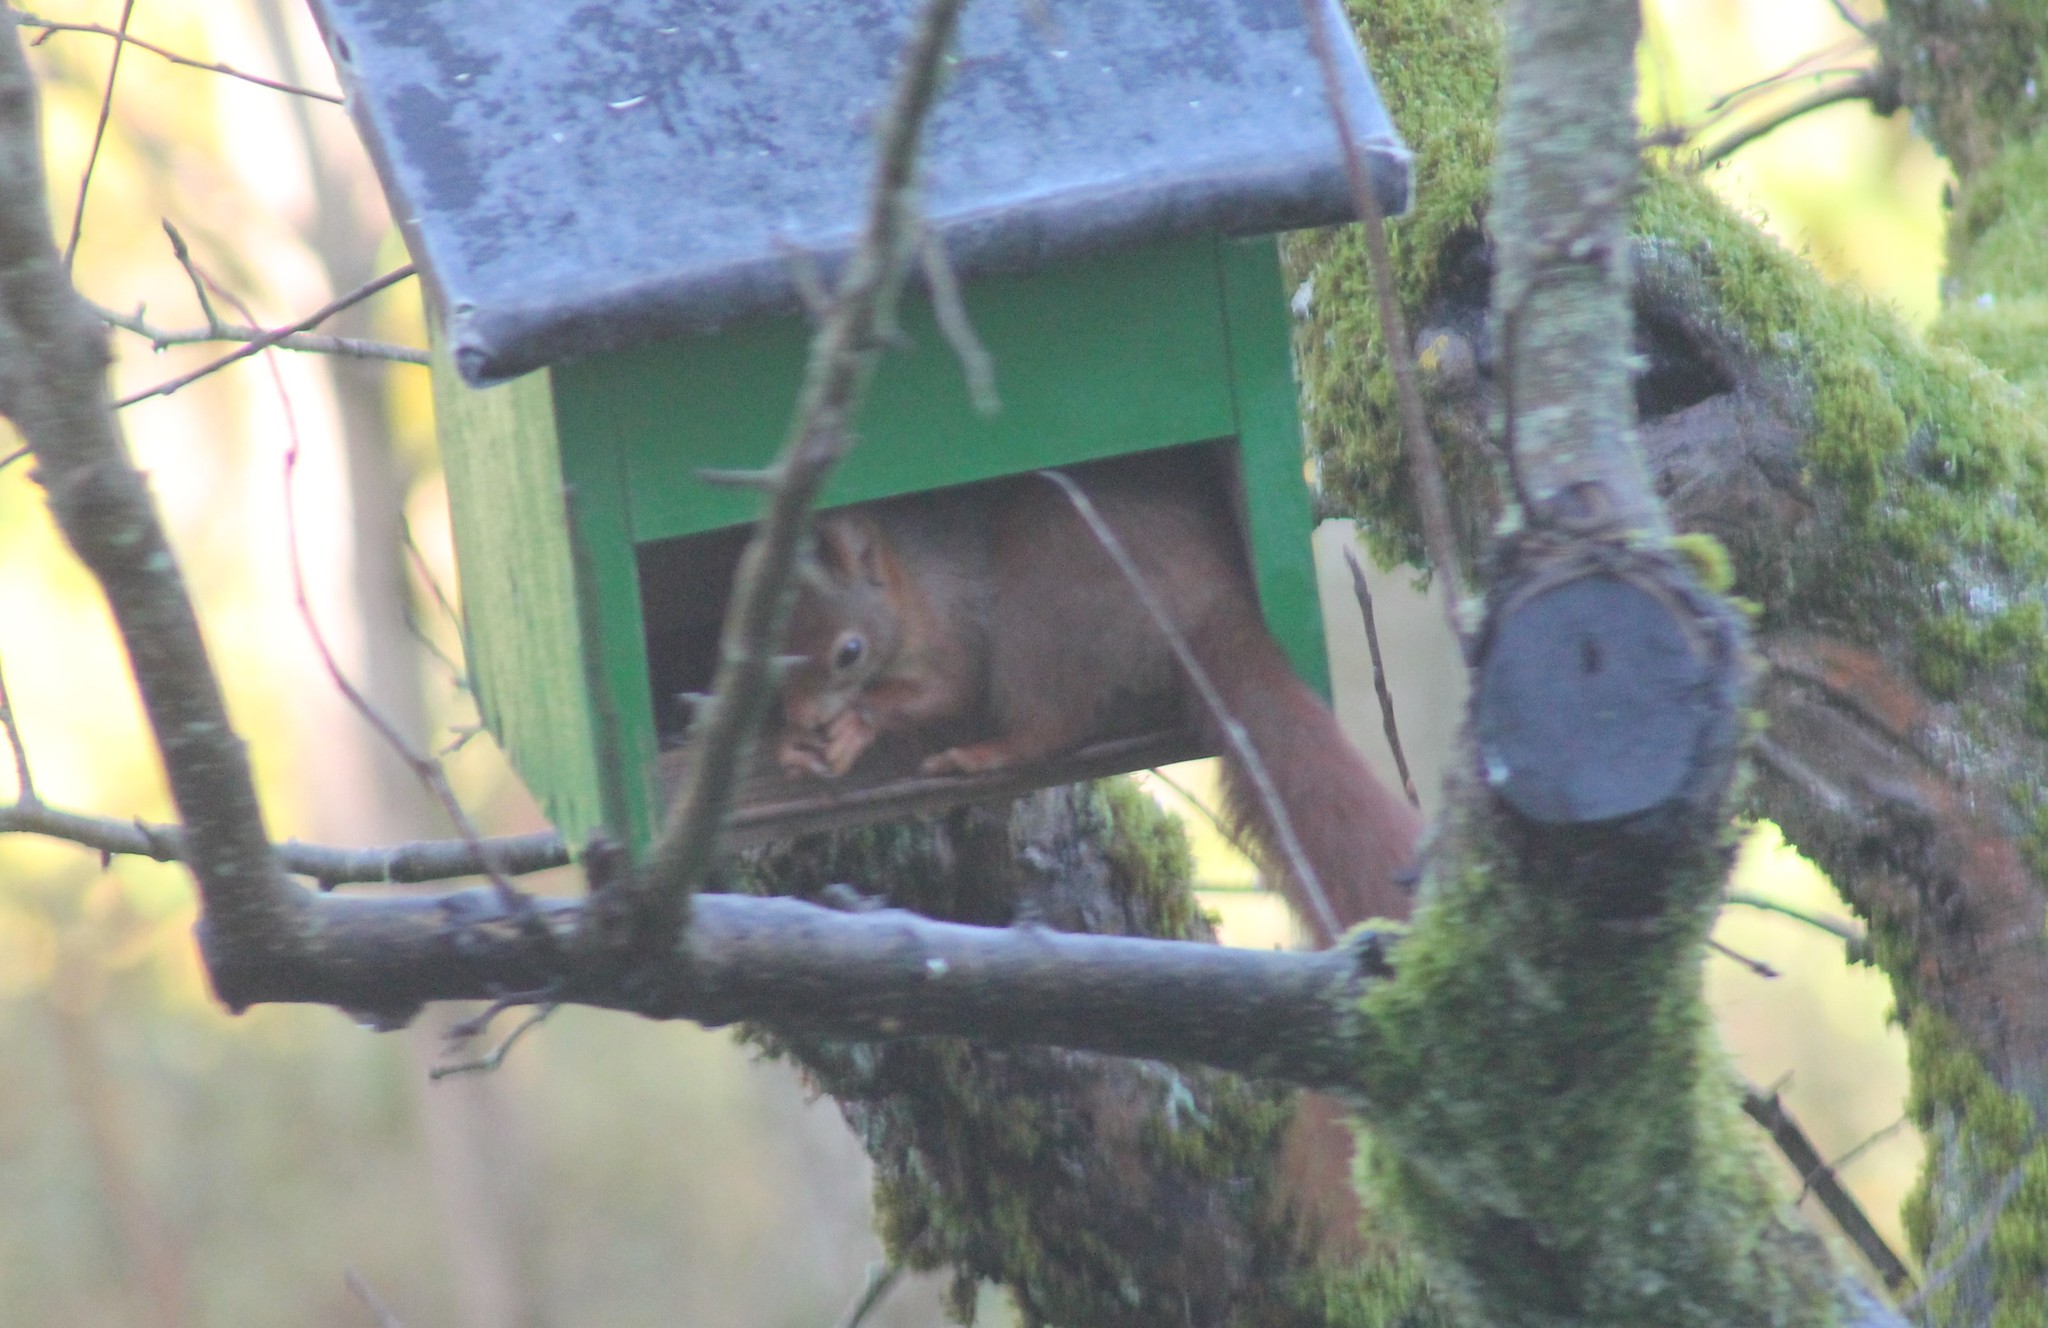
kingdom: Animalia
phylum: Chordata
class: Mammalia
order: Rodentia
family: Sciuridae
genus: Sciurus
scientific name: Sciurus vulgaris
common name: Eurasian red squirrel
